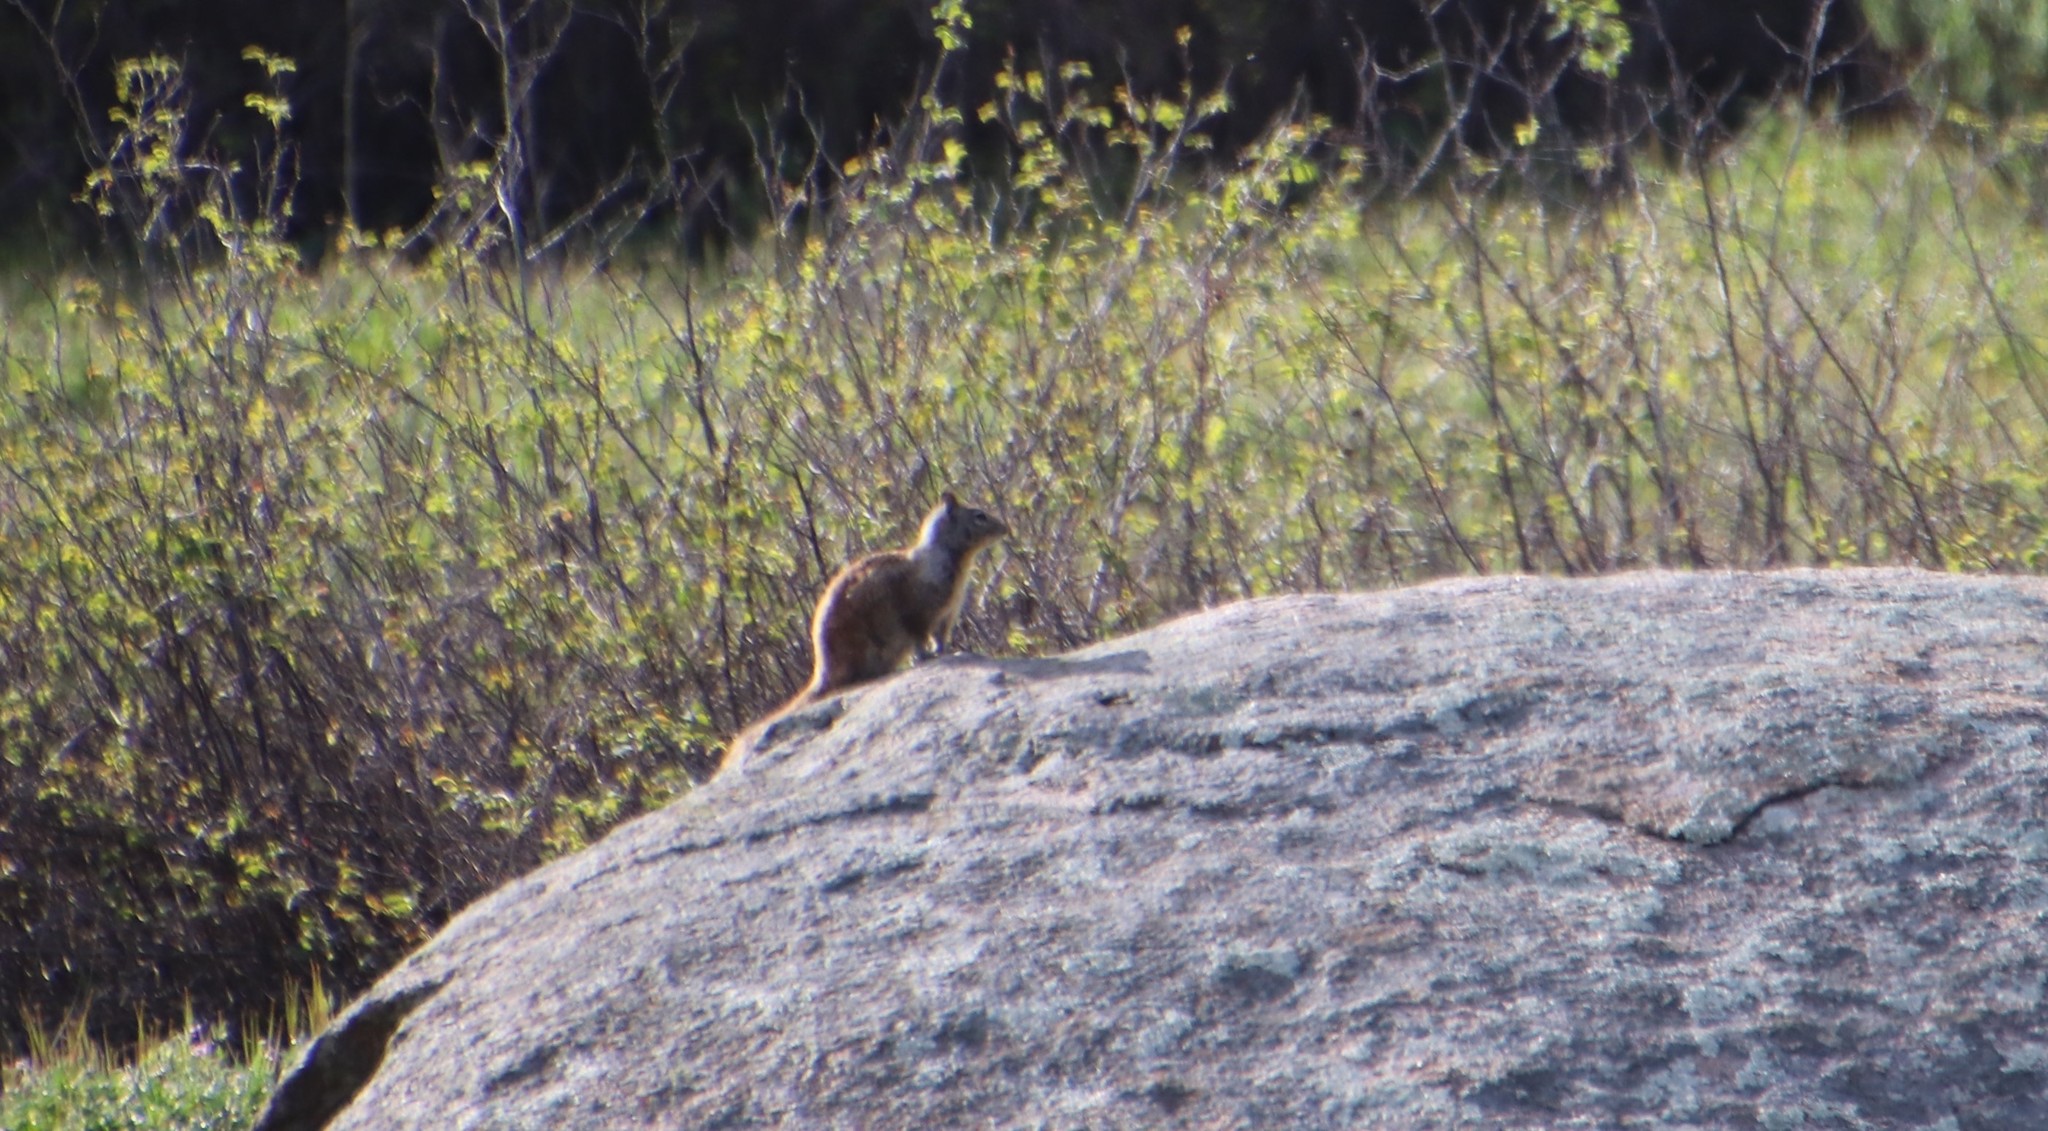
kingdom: Animalia
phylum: Chordata
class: Mammalia
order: Rodentia
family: Sciuridae
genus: Otospermophilus
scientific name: Otospermophilus beecheyi
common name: California ground squirrel
